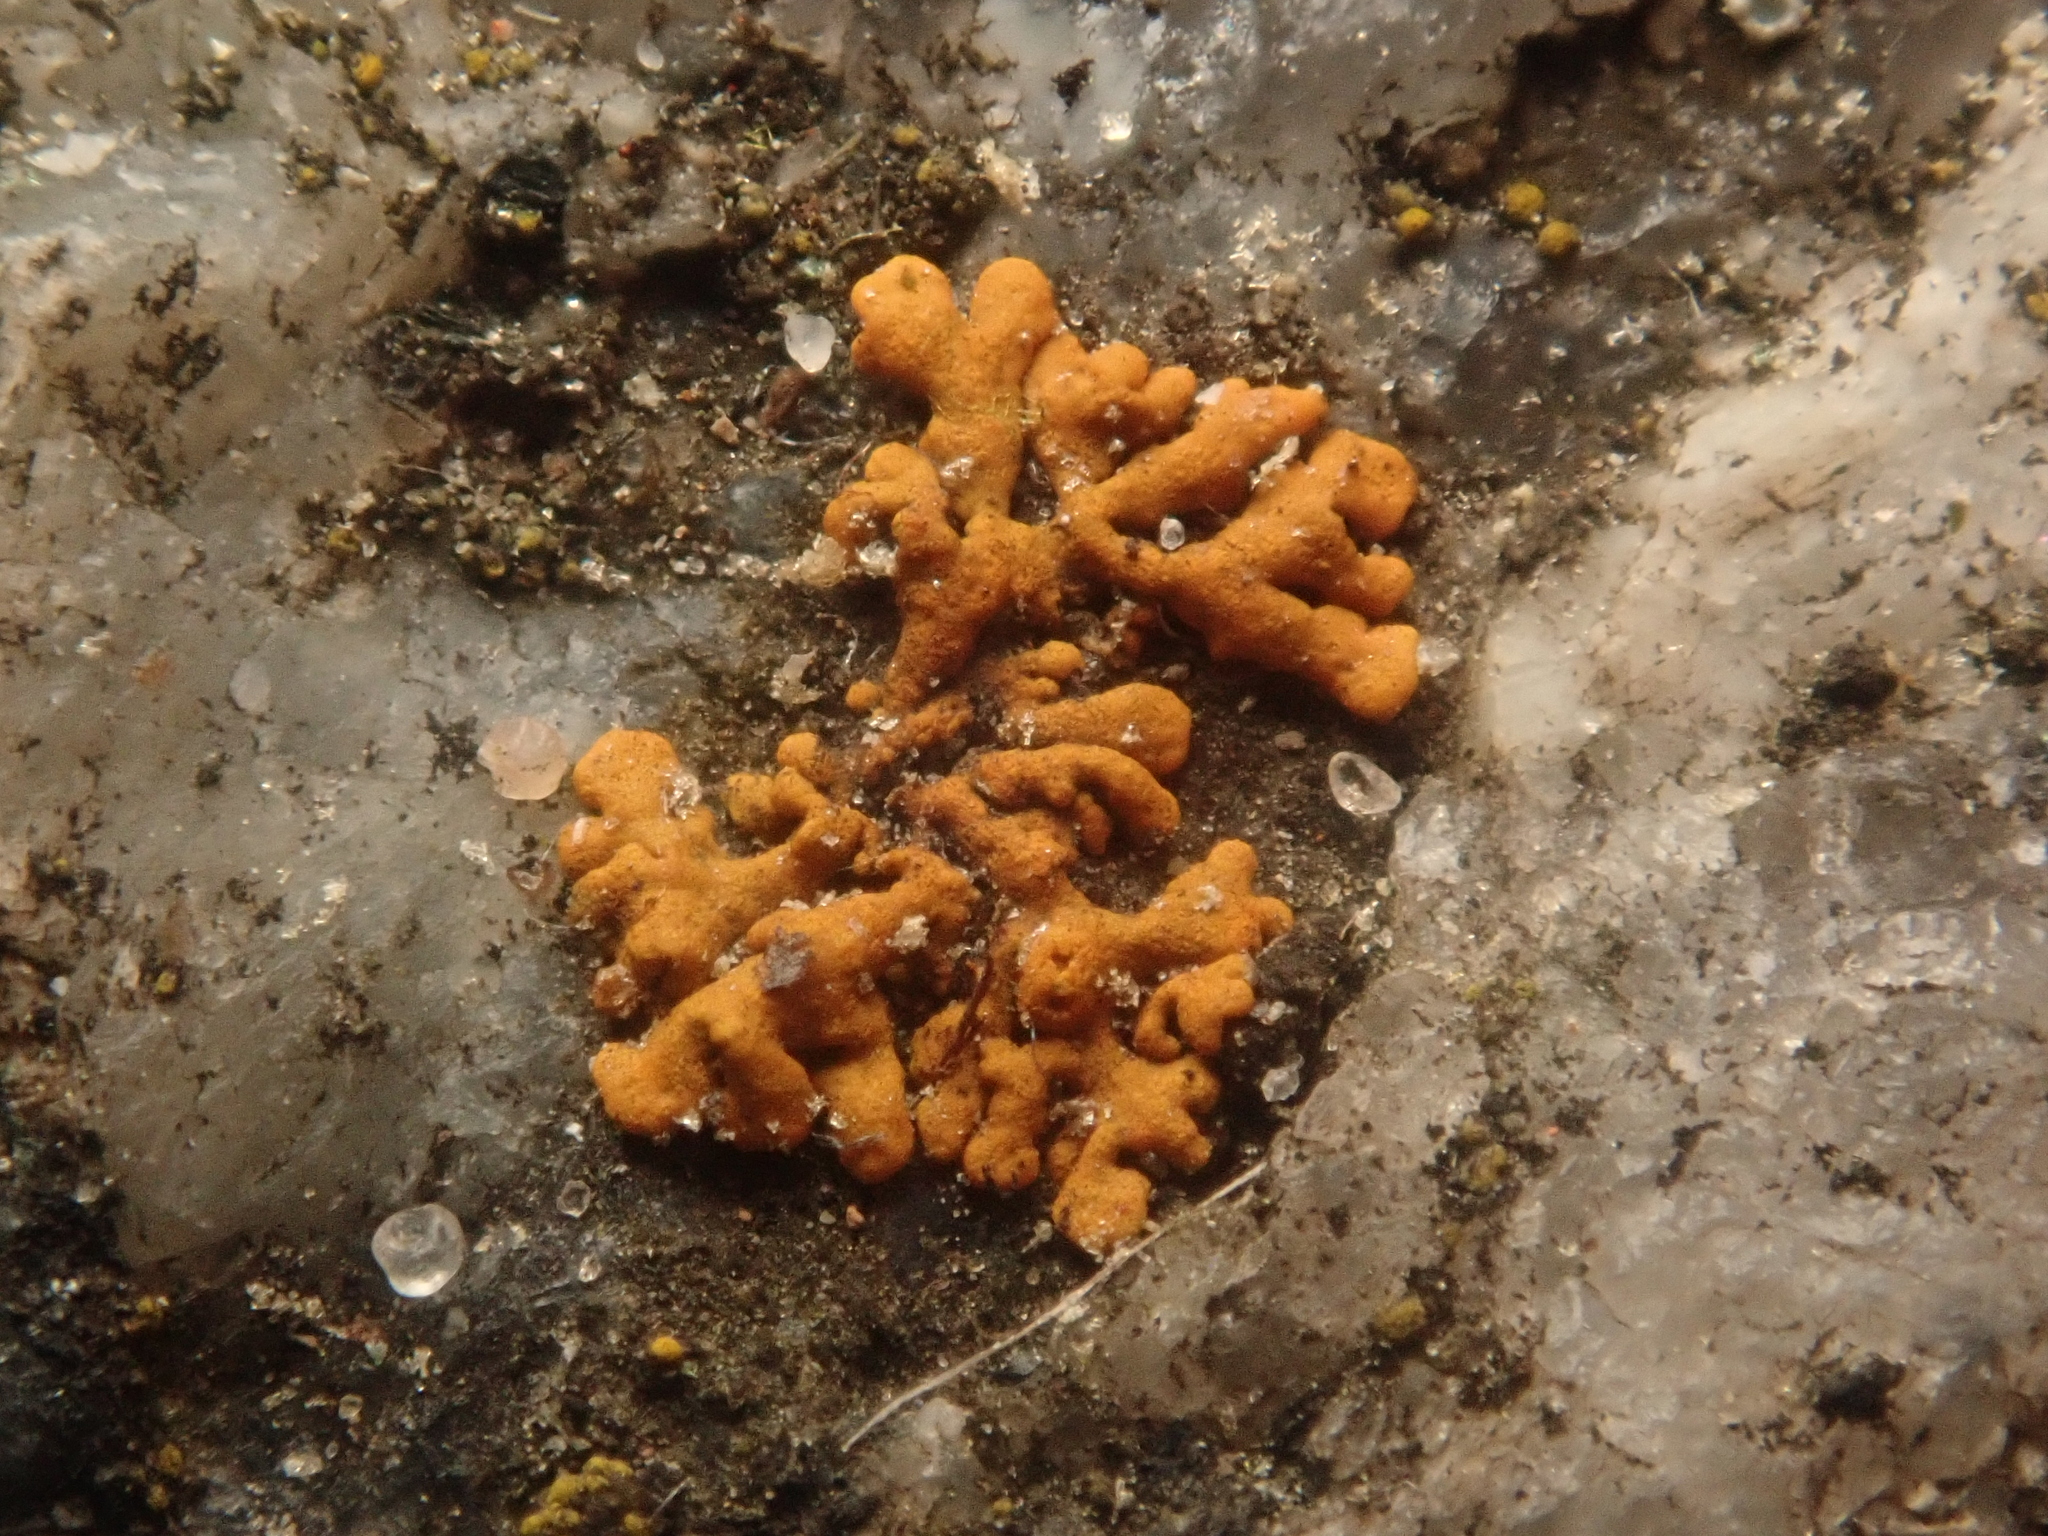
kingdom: Fungi
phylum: Ascomycota
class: Lecanoromycetes
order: Teloschistales
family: Teloschistaceae
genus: Xanthoria
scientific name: Xanthoria elegans
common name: Elegant sunburst lichen
